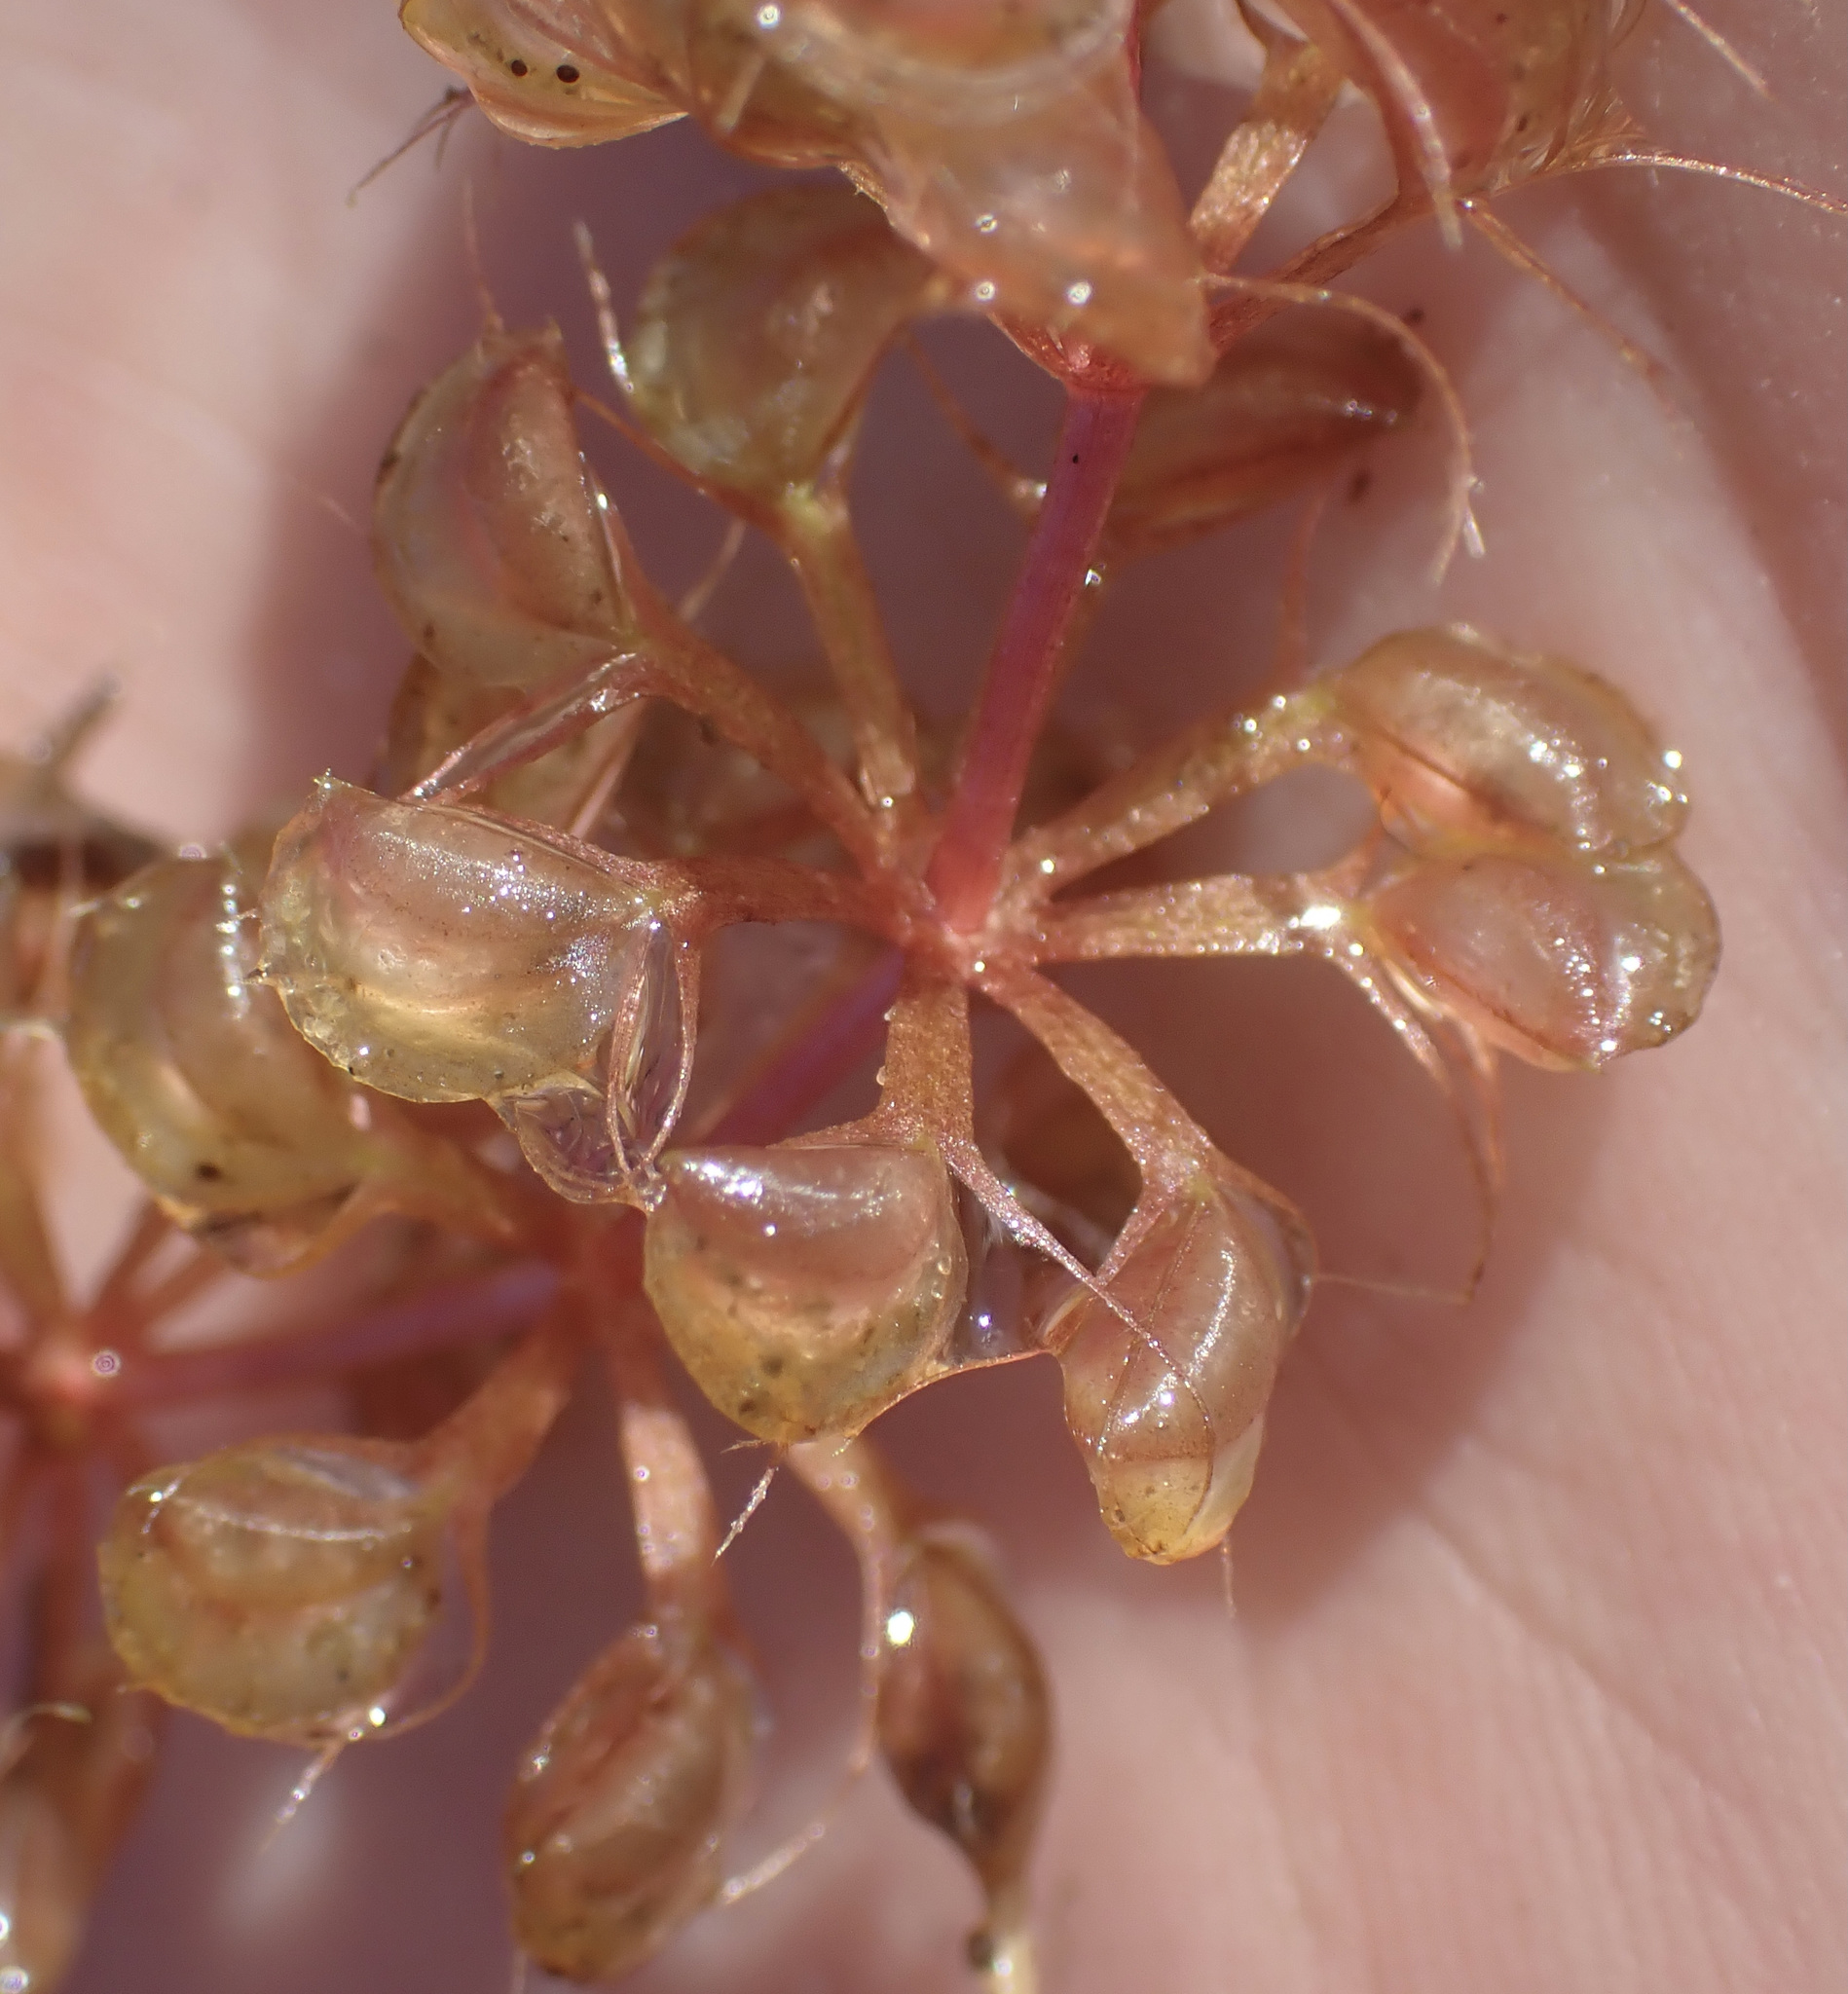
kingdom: Plantae
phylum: Tracheophyta
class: Magnoliopsida
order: Caryophyllales
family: Droseraceae
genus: Aldrovanda
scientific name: Aldrovanda vesiculosa
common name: Waterwheel plant
